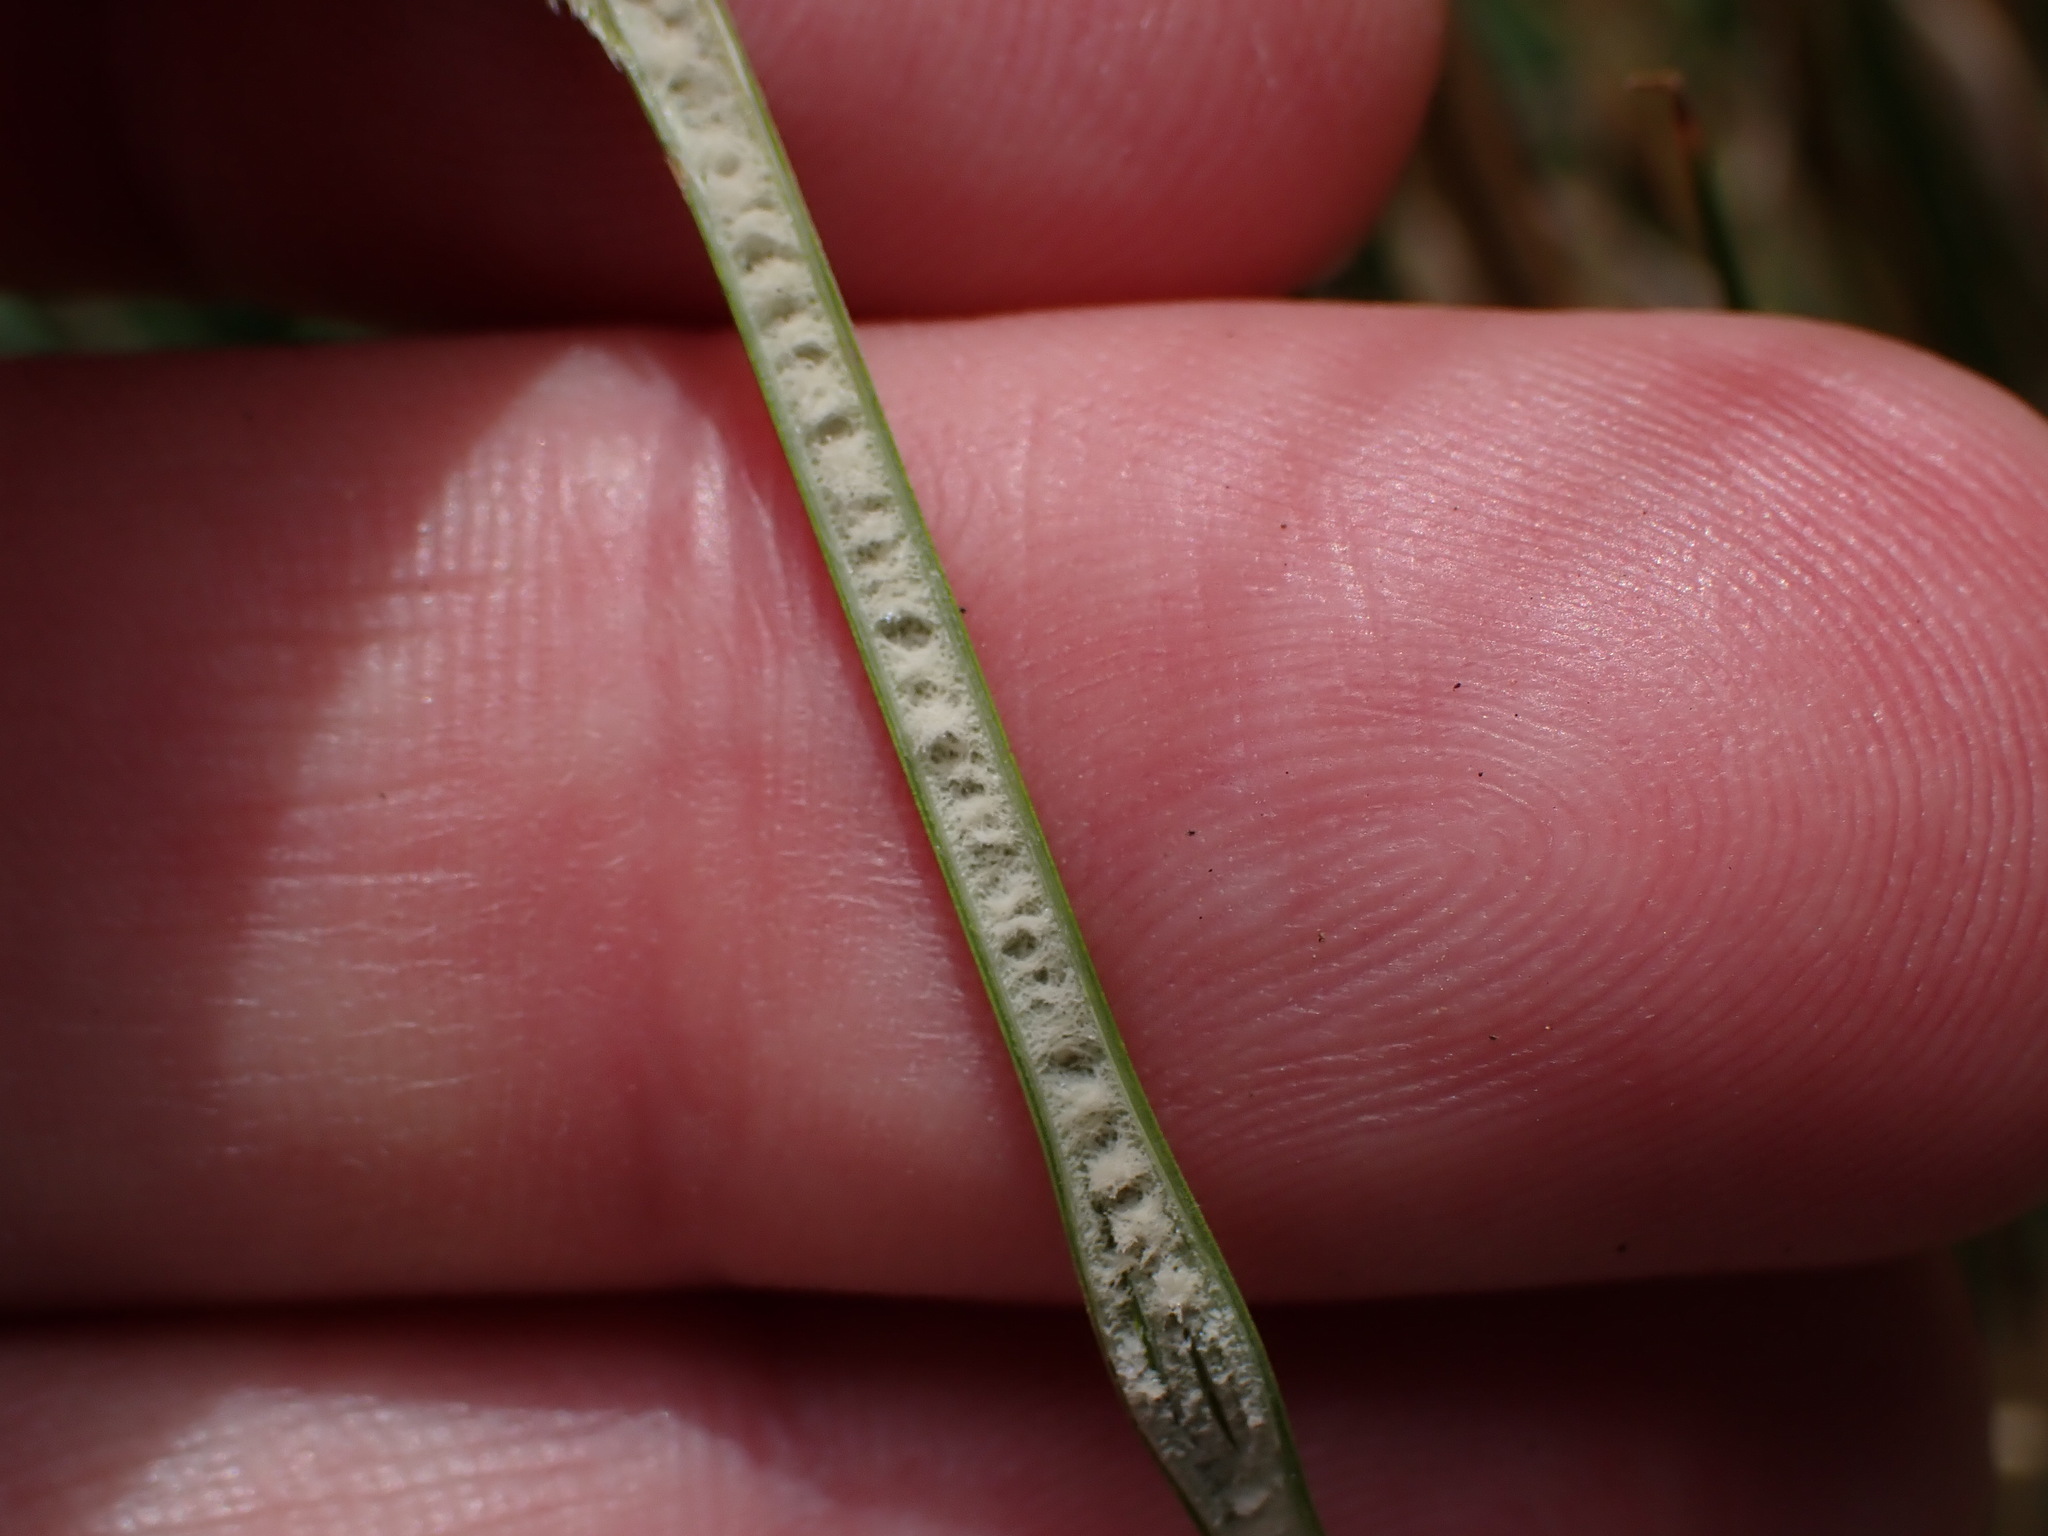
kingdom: Plantae
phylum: Tracheophyta
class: Liliopsida
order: Poales
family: Juncaceae
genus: Juncus
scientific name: Juncus sarophorus
